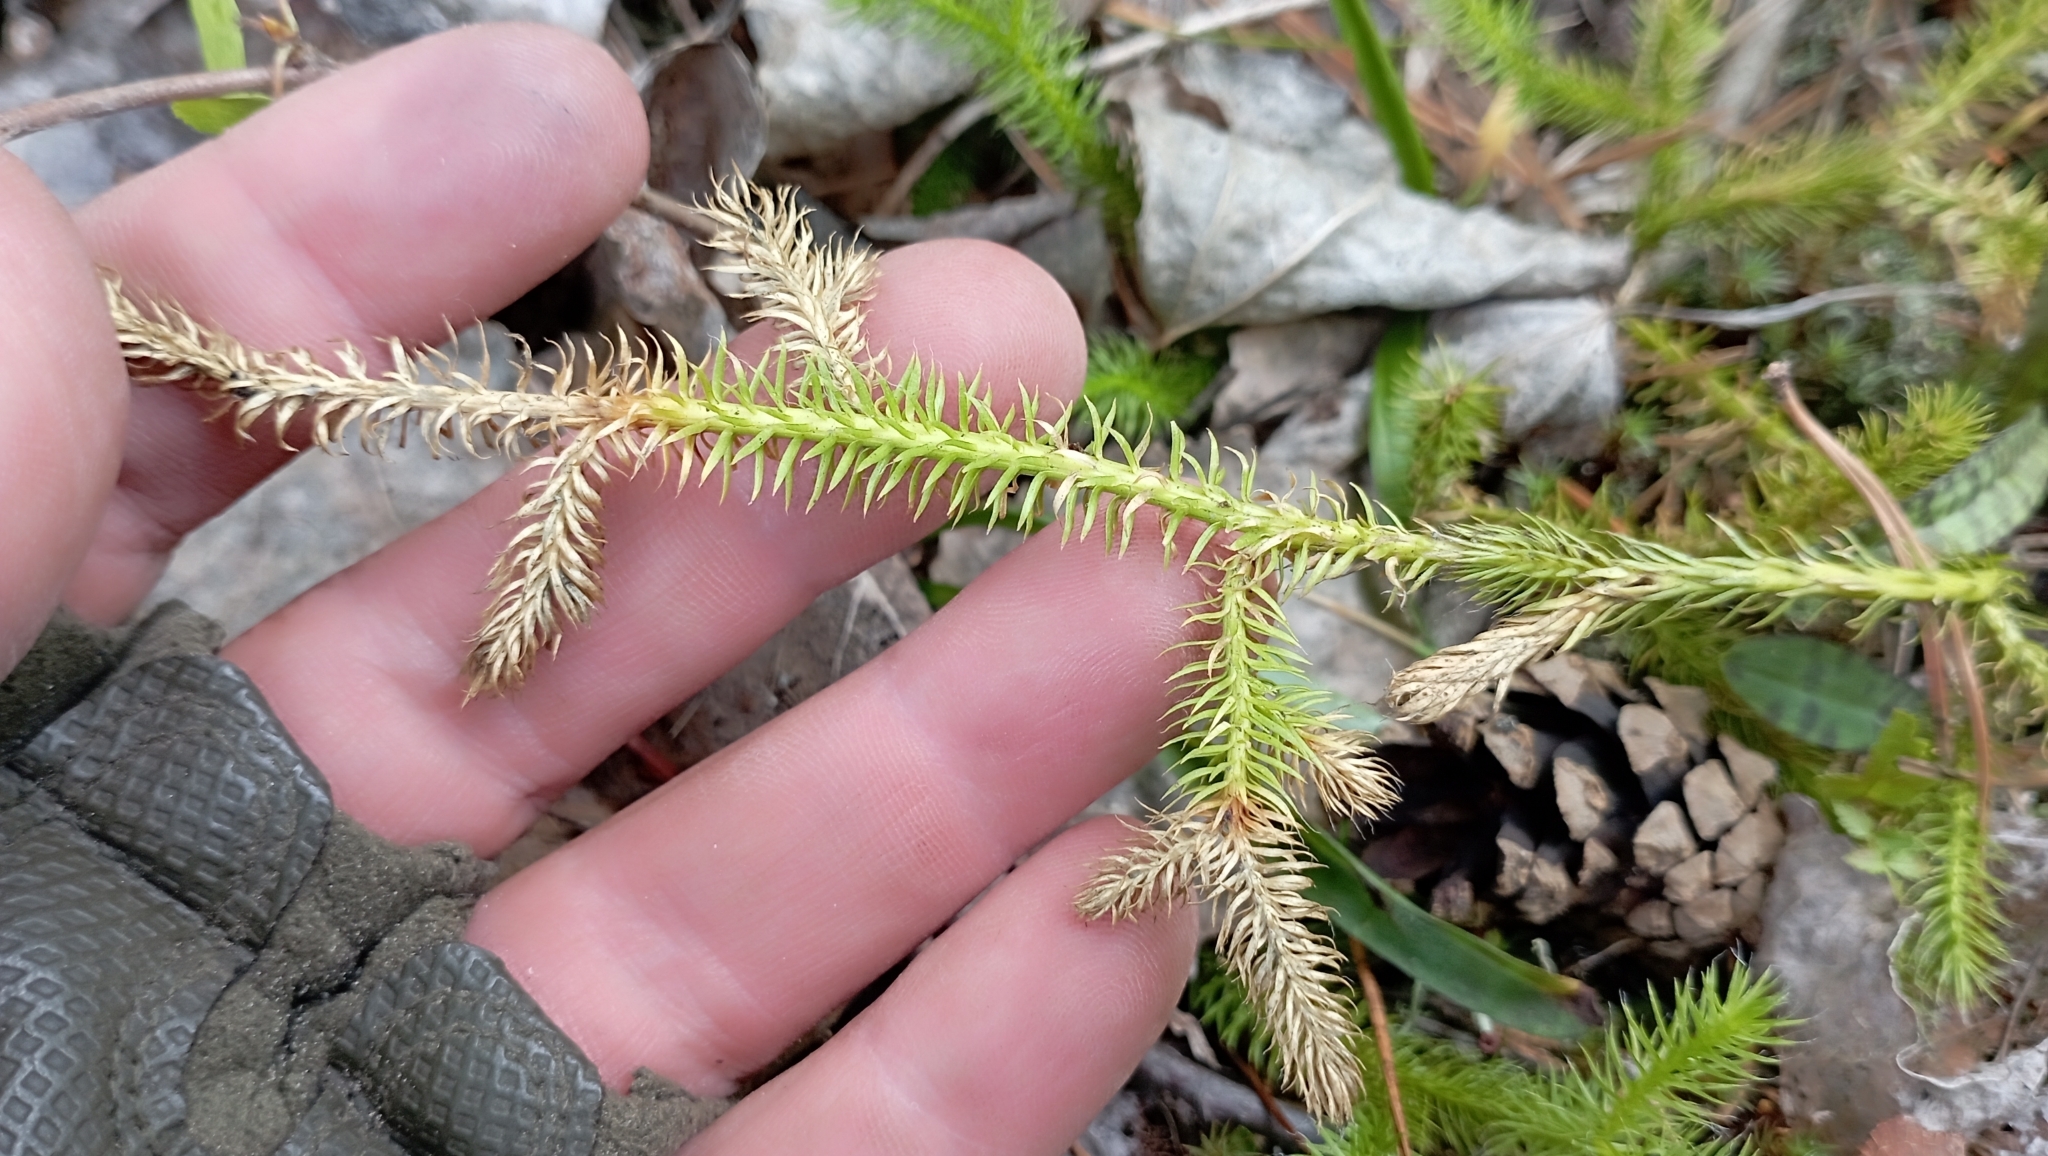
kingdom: Plantae
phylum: Tracheophyta
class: Lycopodiopsida
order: Lycopodiales
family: Lycopodiaceae
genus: Lycopodium
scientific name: Lycopodium clavatum
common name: Stag's-horn clubmoss
